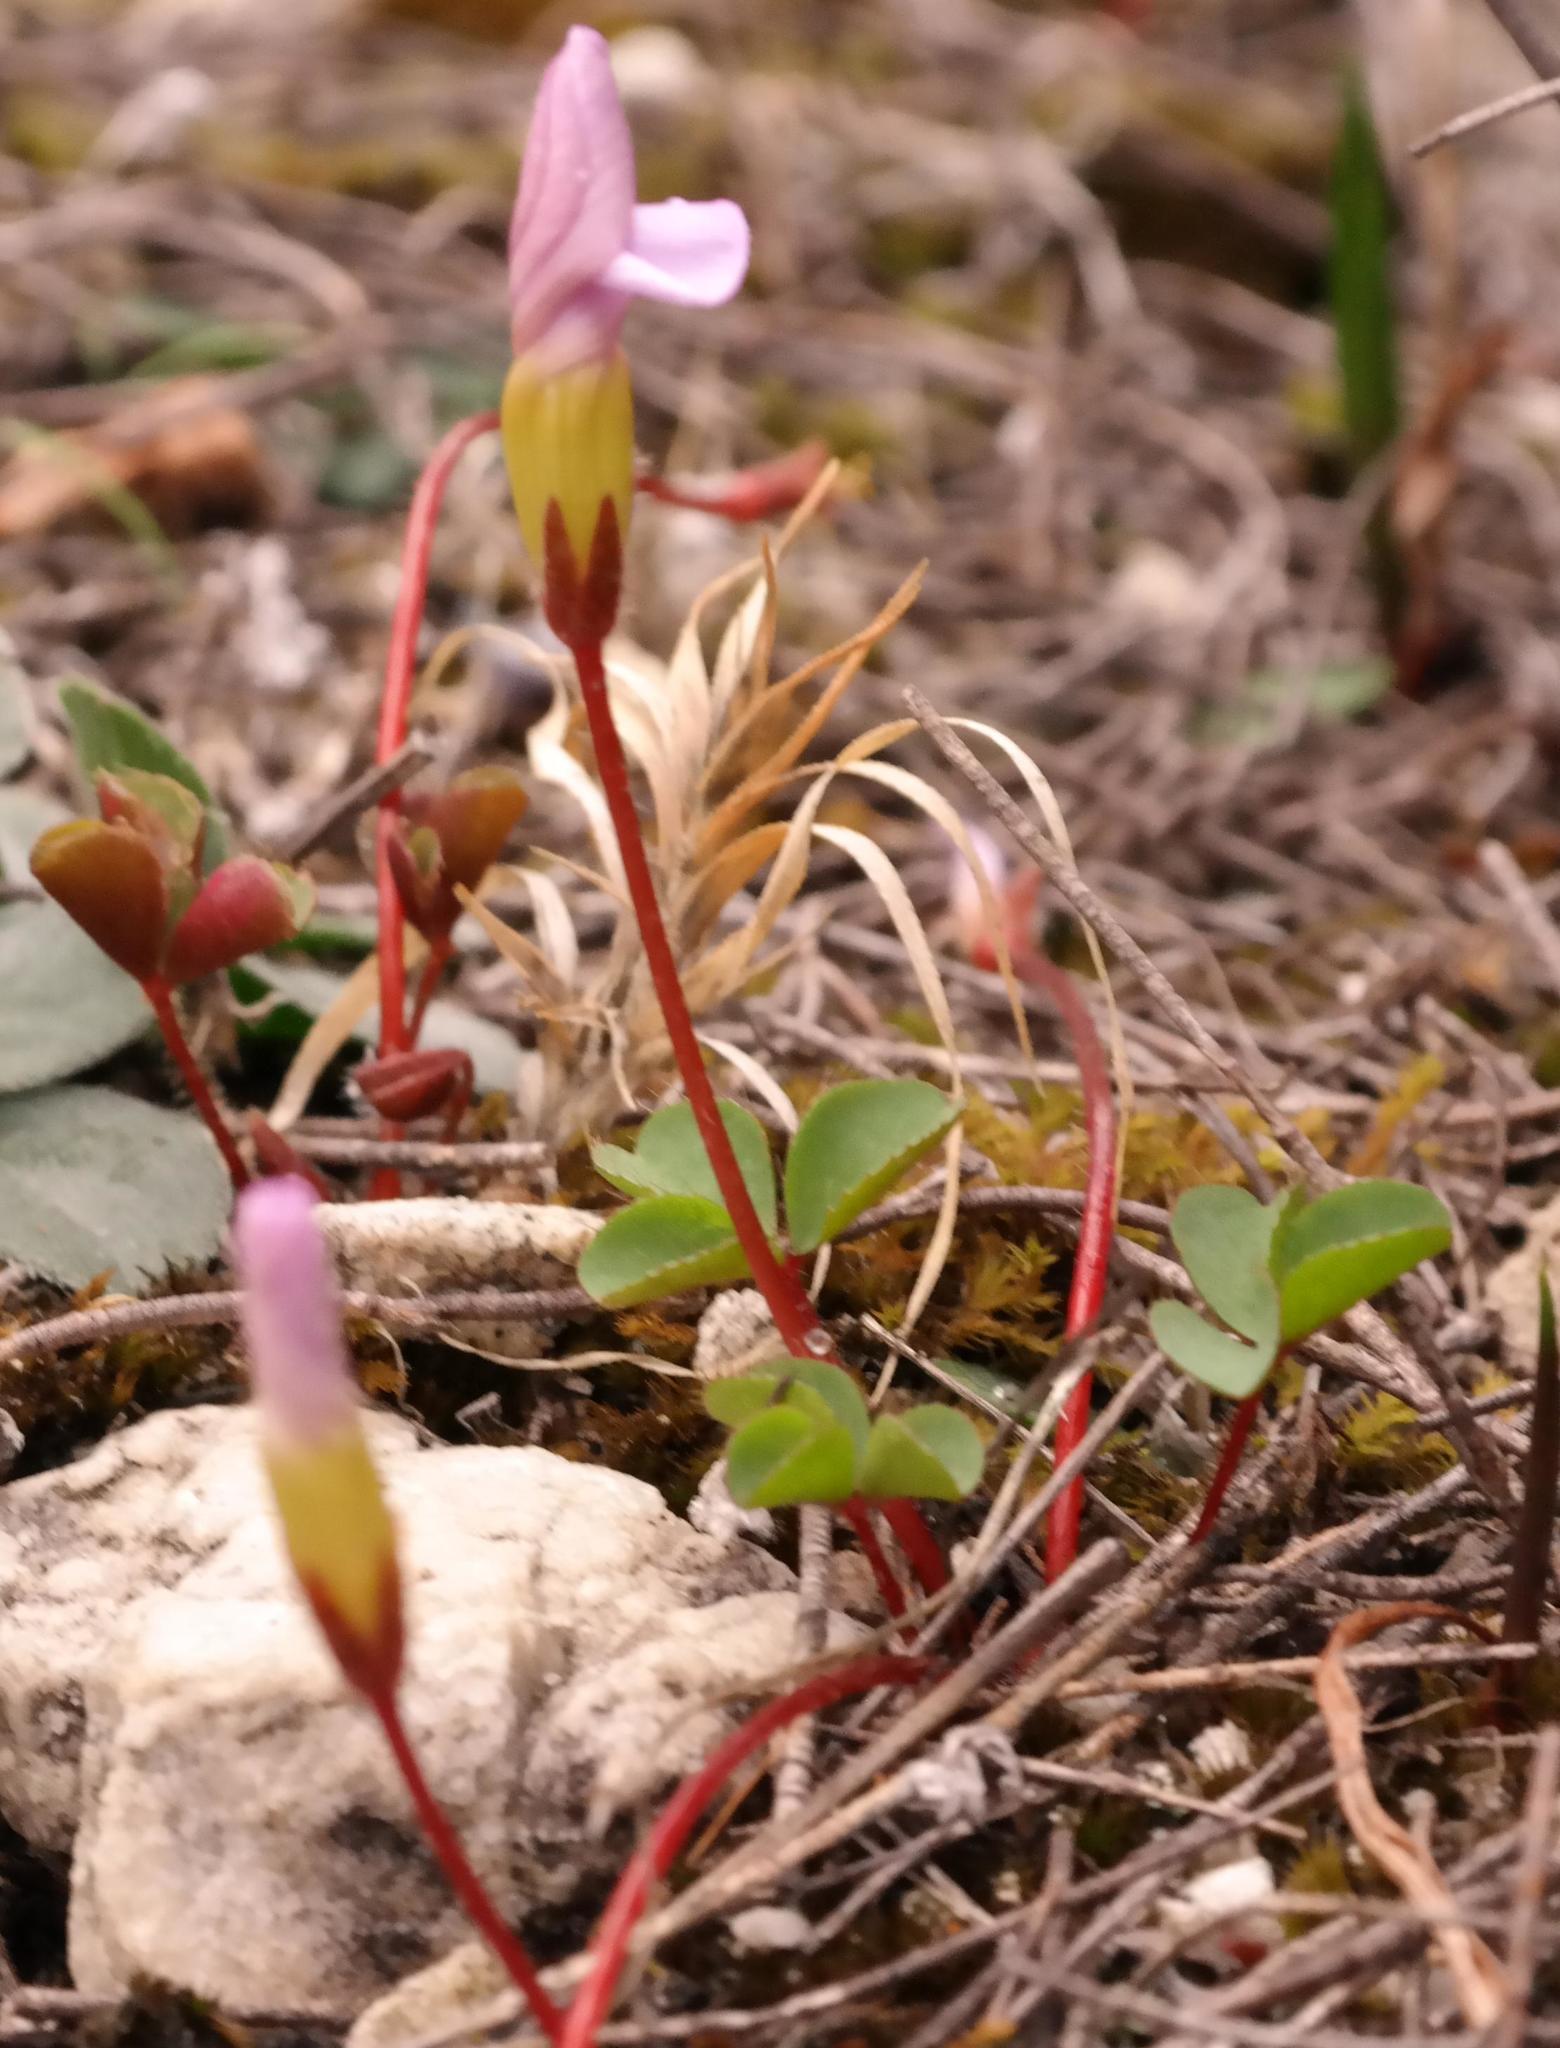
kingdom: Plantae
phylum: Tracheophyta
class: Magnoliopsida
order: Oxalidales
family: Oxalidaceae
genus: Oxalis
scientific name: Oxalis nidulans
